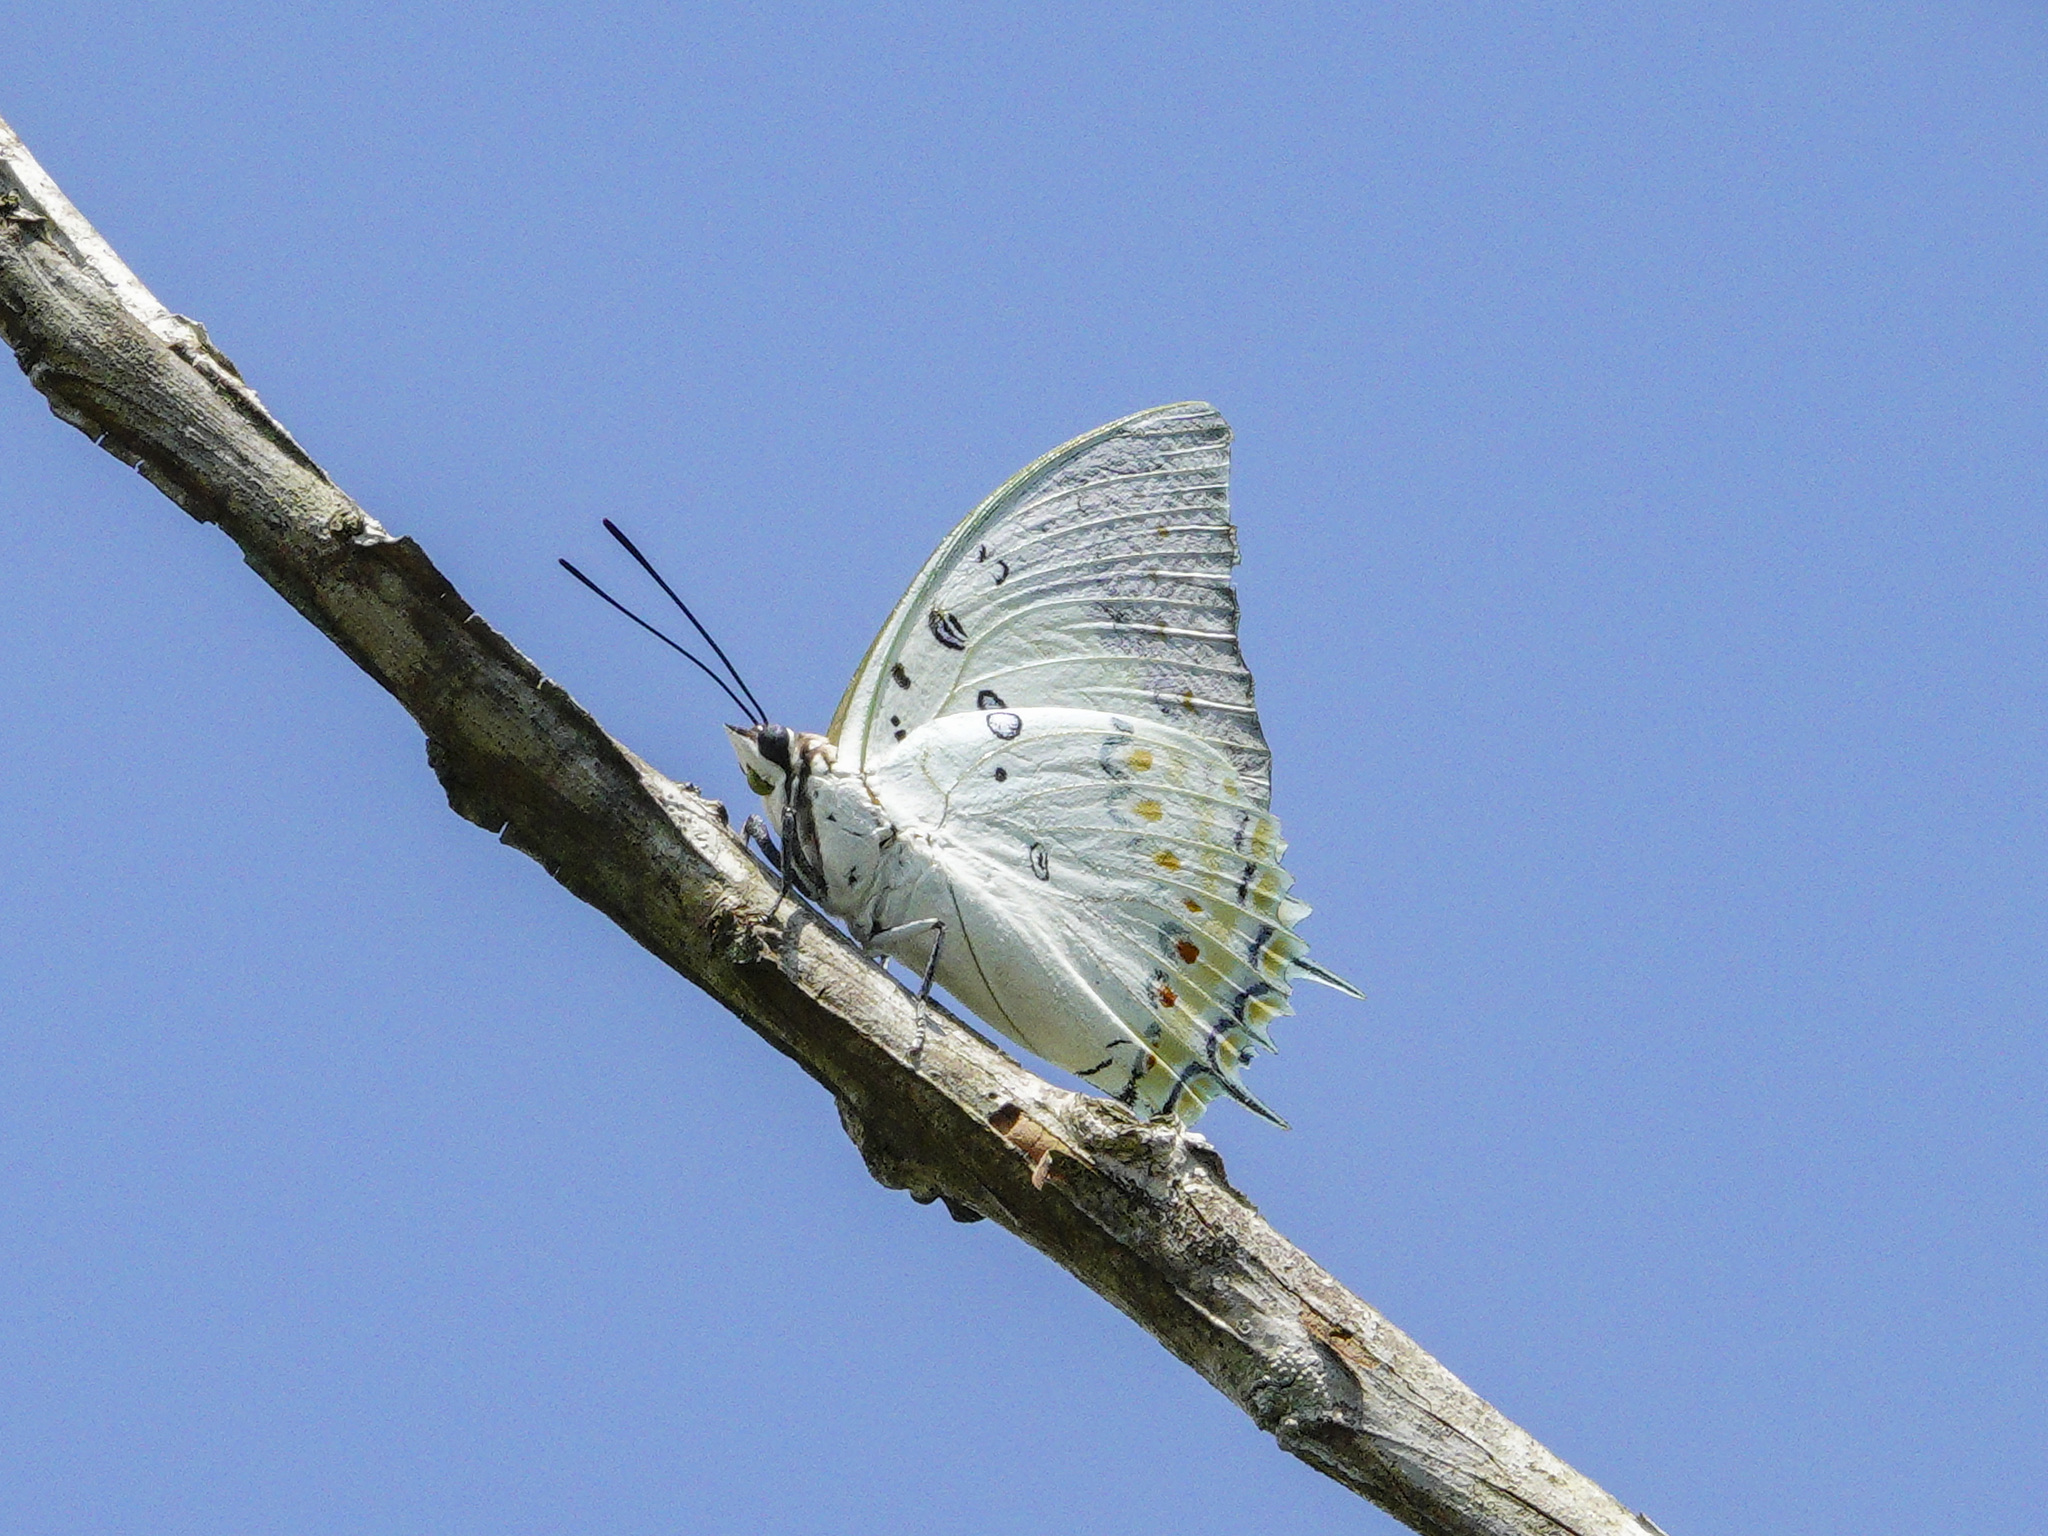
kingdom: Animalia
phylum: Arthropoda
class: Insecta
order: Lepidoptera
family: Nymphalidae
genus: Polyura
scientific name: Polyura delphis
